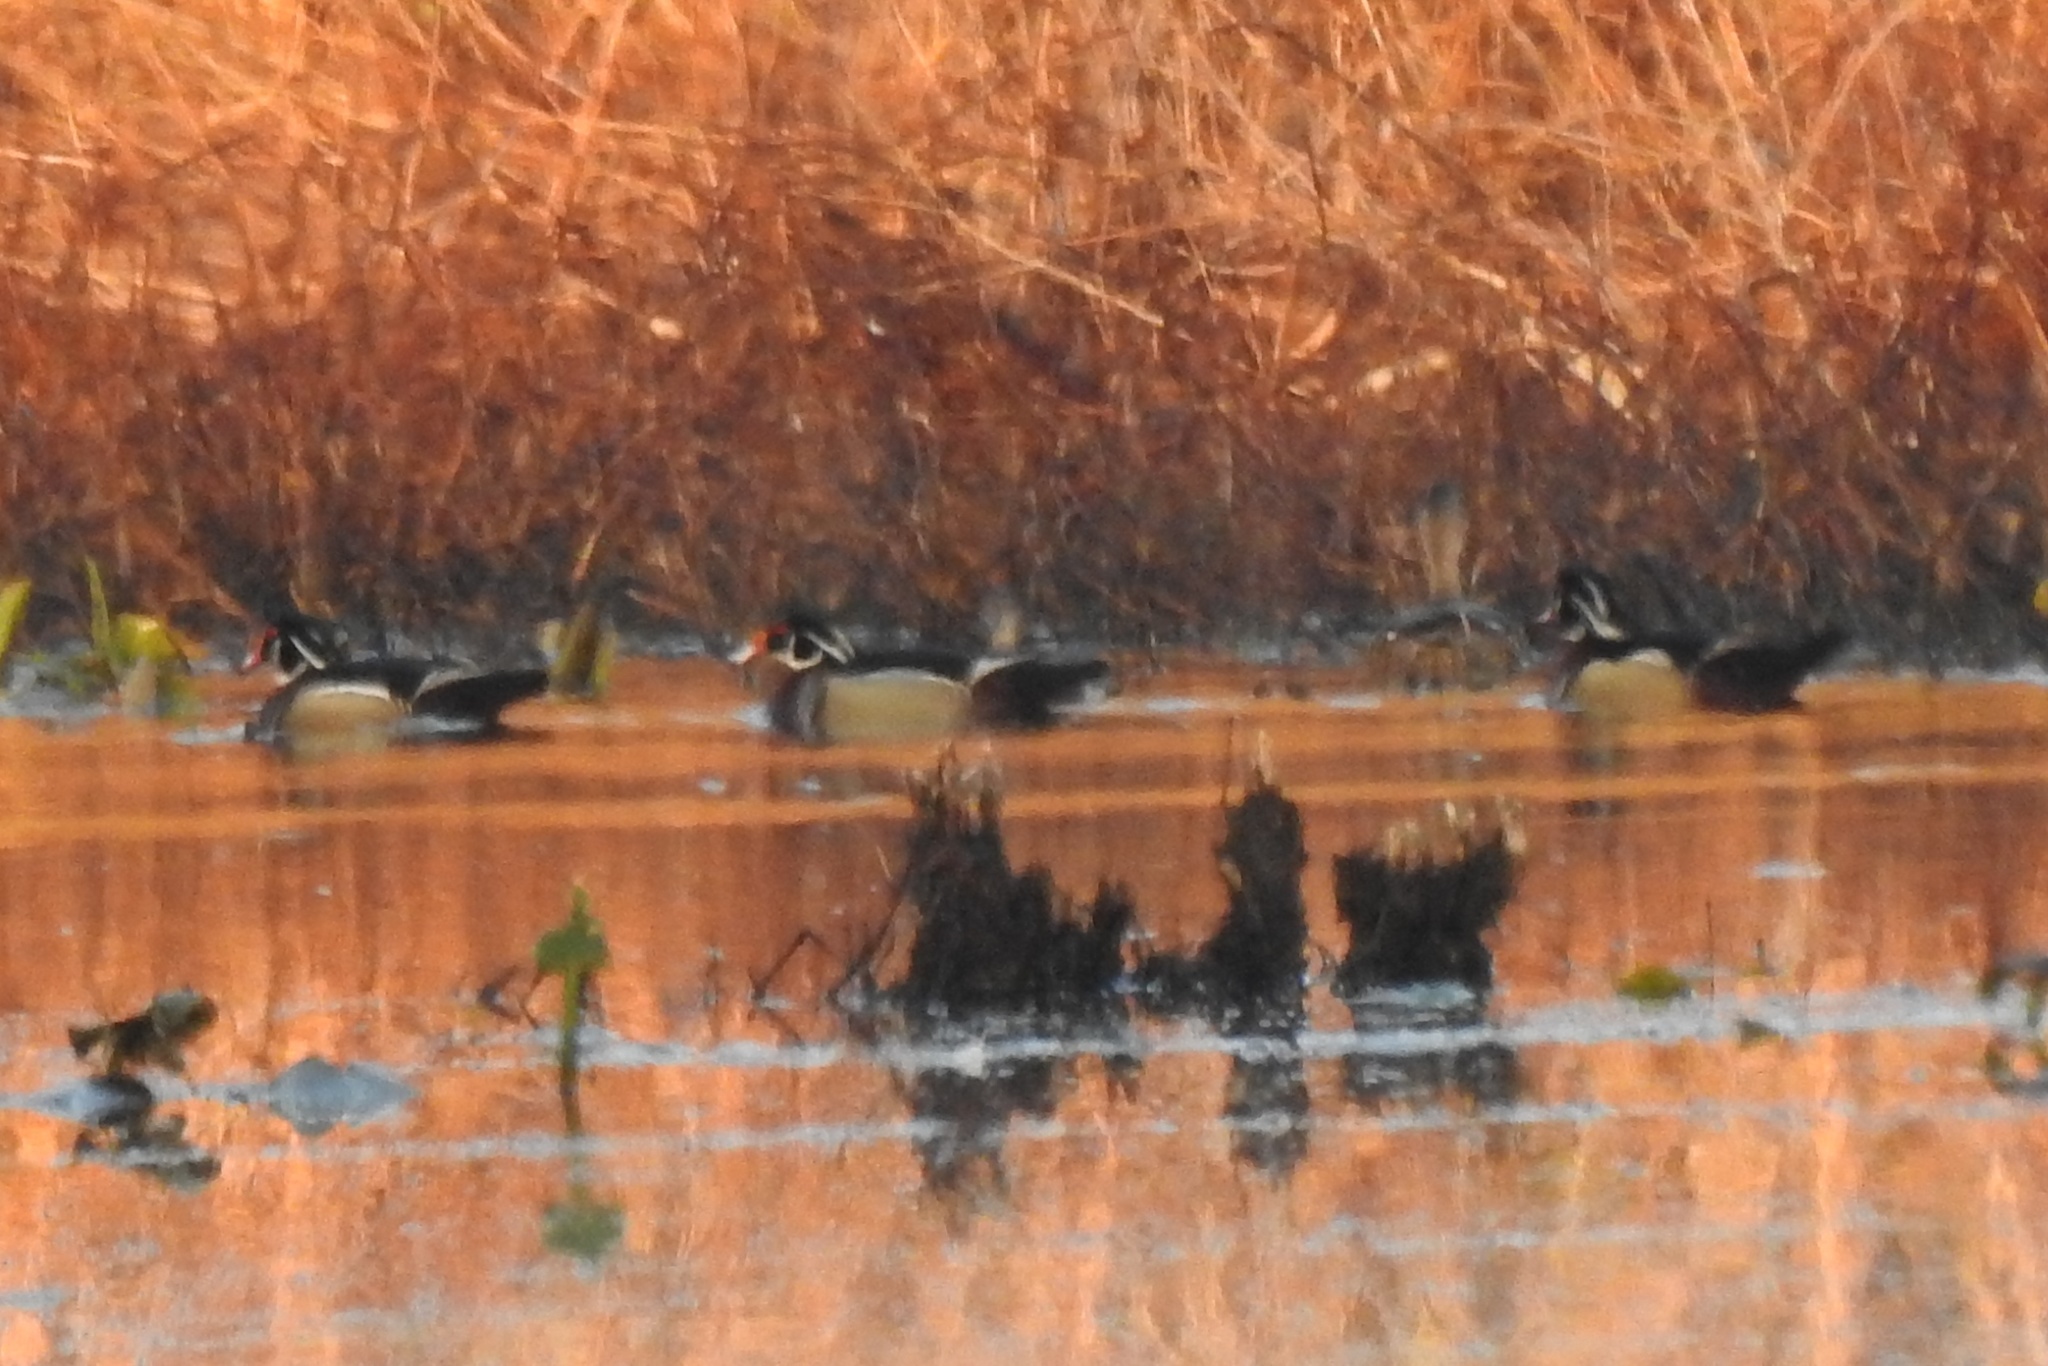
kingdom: Animalia
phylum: Chordata
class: Aves
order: Anseriformes
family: Anatidae
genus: Aix
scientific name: Aix sponsa
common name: Wood duck
